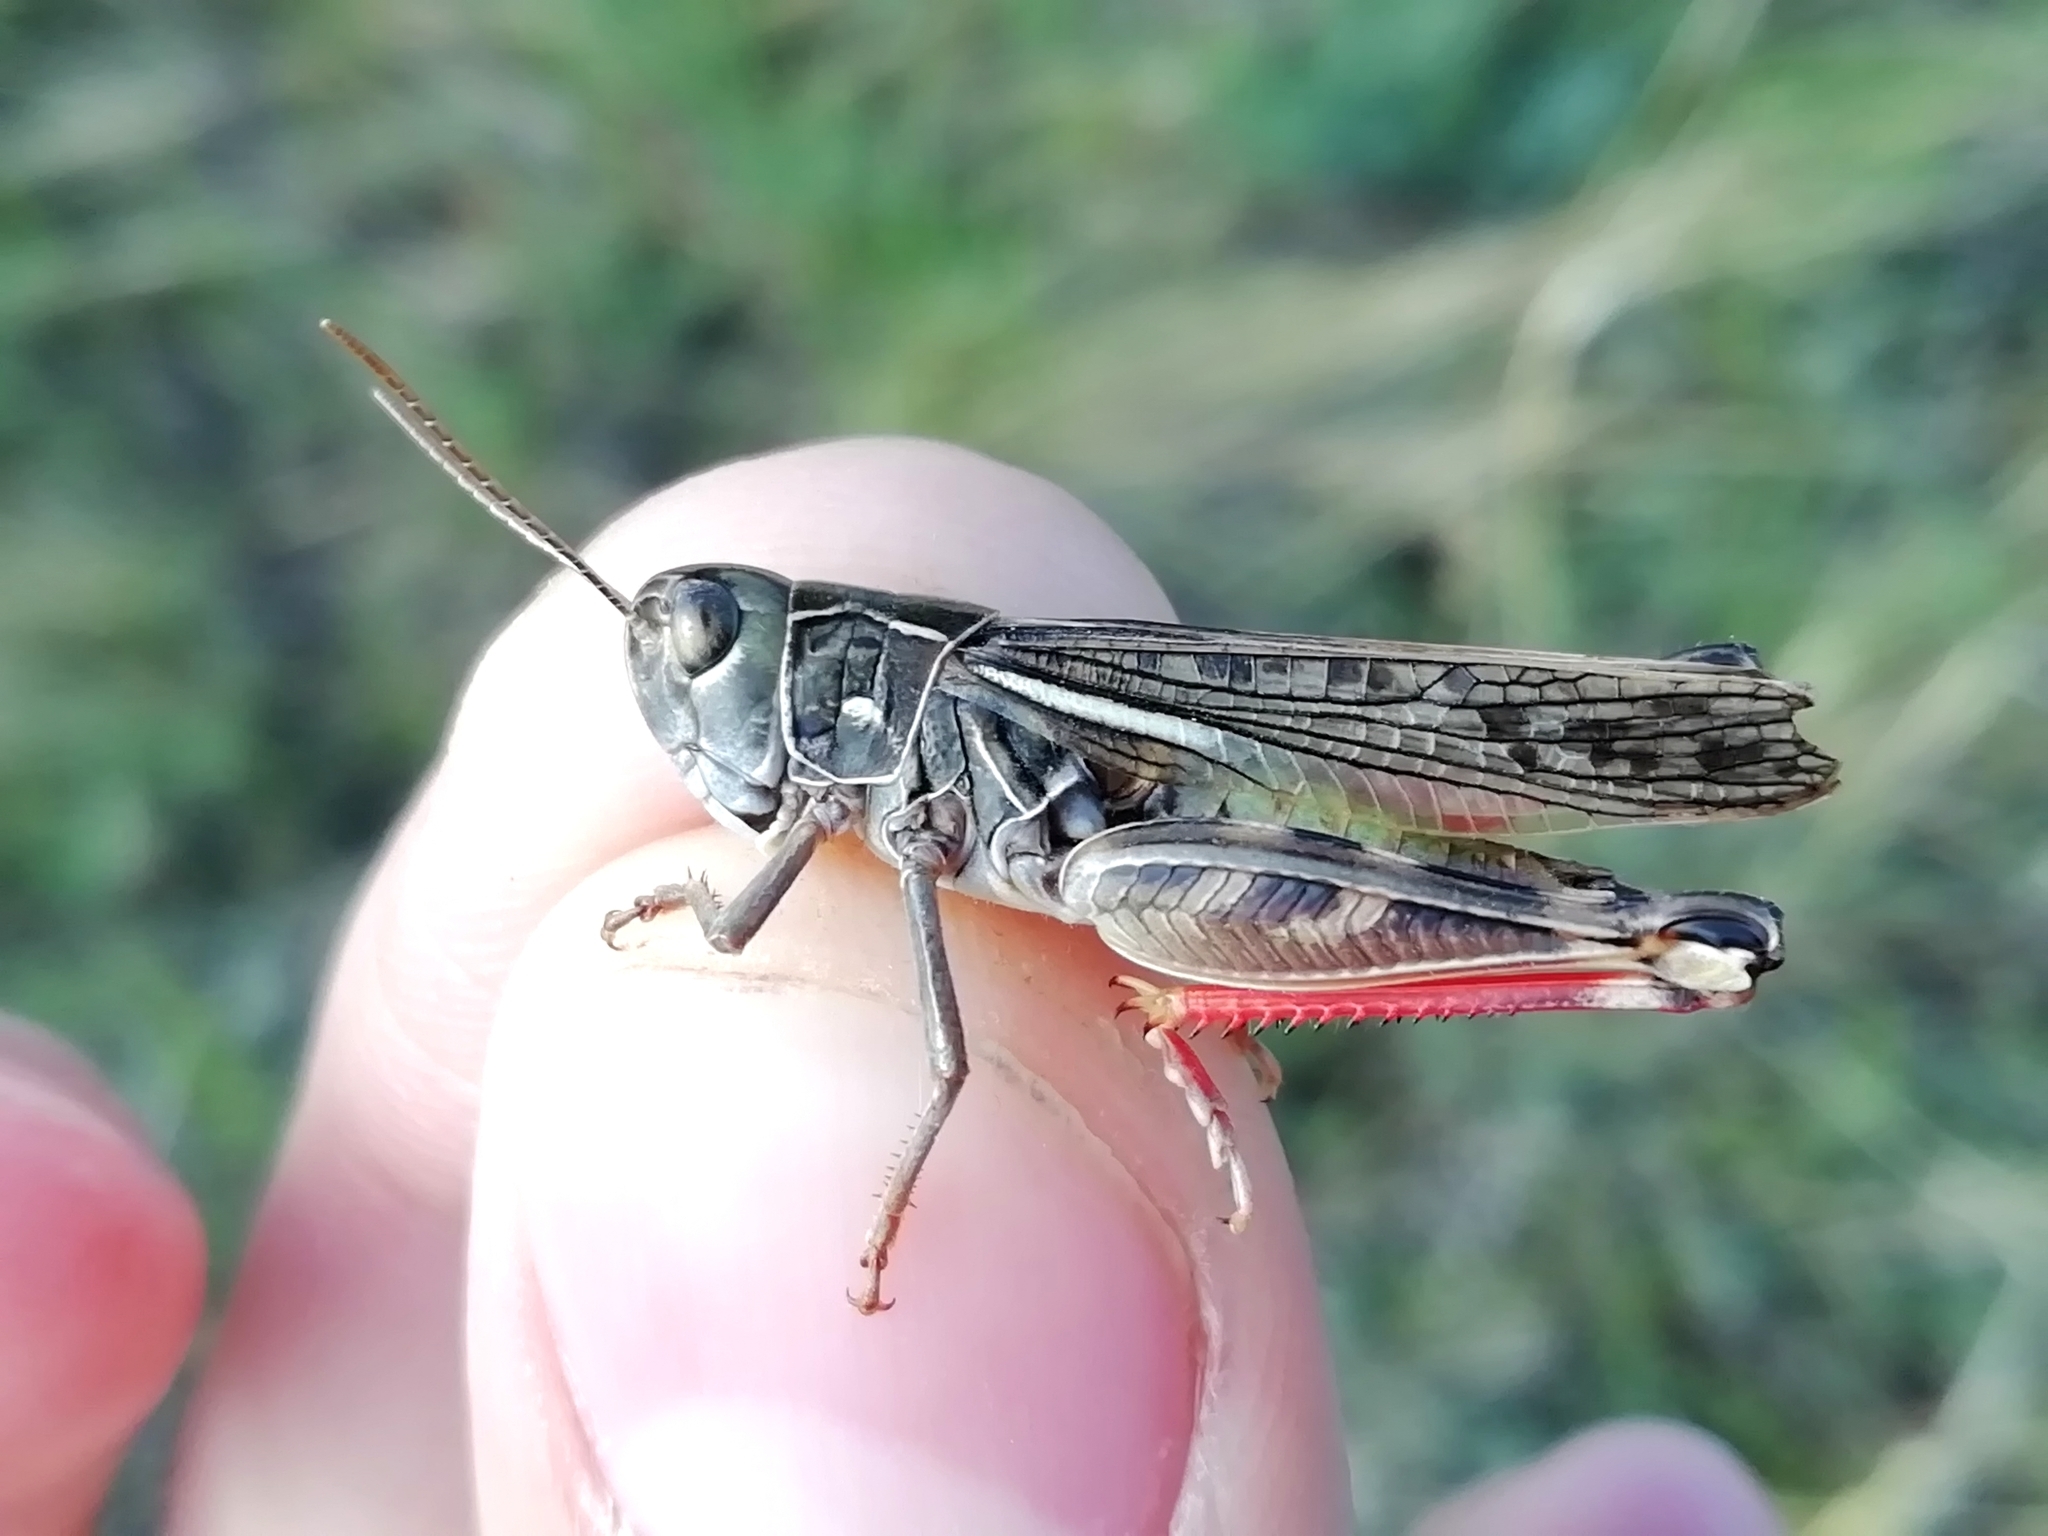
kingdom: Animalia
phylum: Arthropoda
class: Insecta
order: Orthoptera
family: Acrididae
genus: Arcyptera
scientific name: Arcyptera microptera
